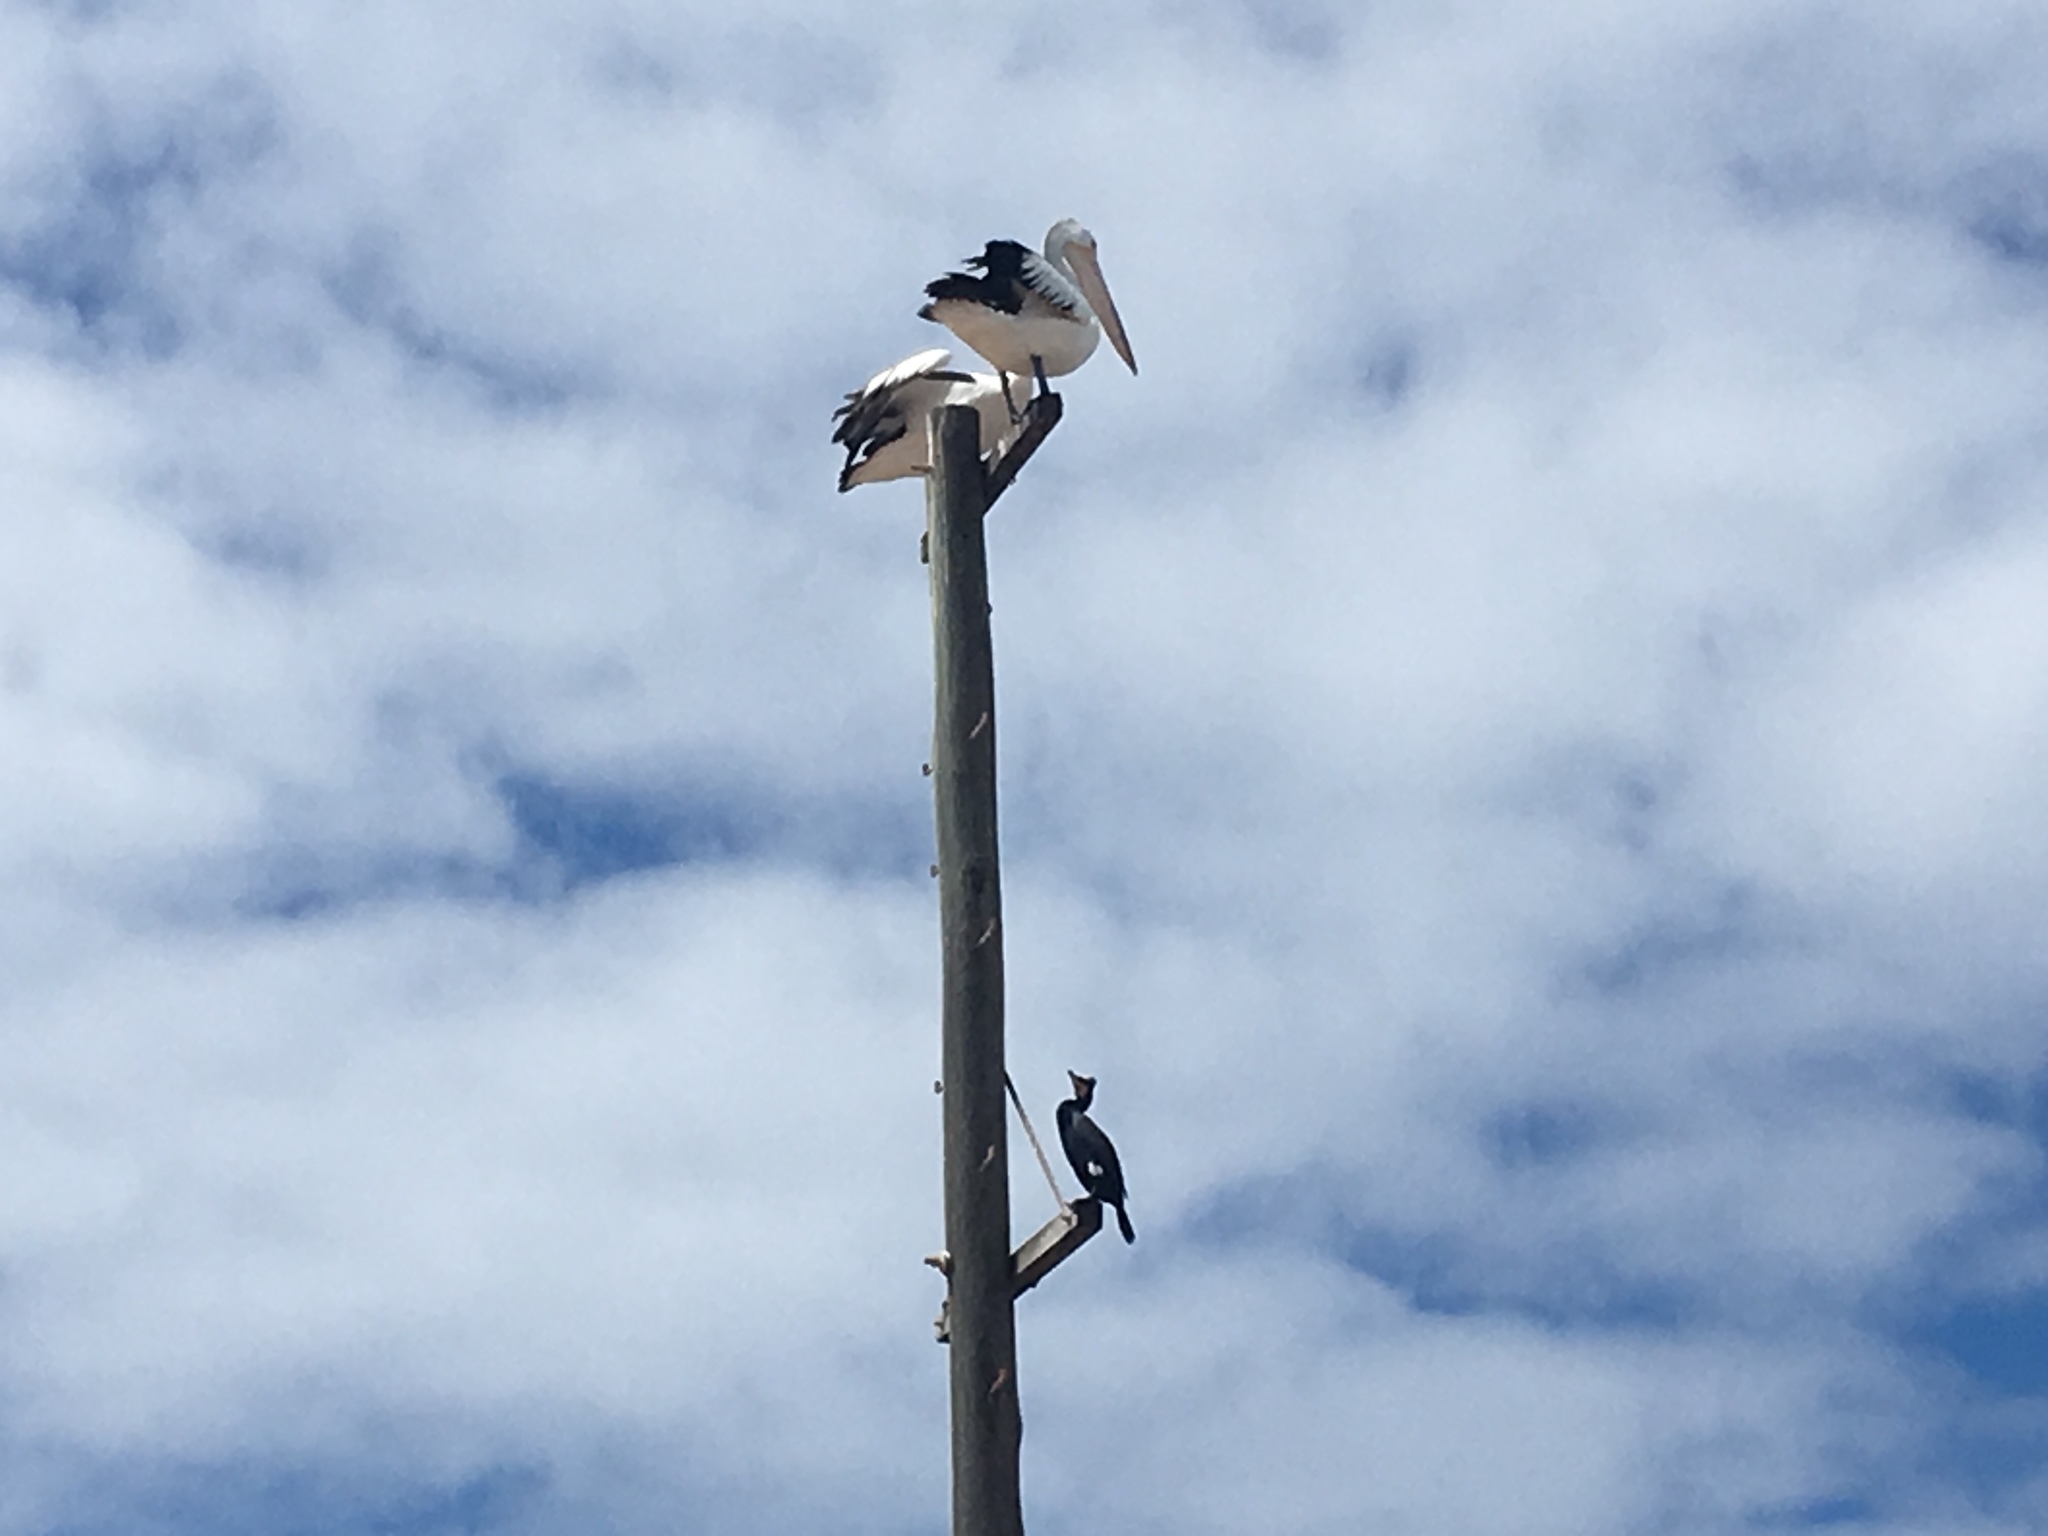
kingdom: Animalia
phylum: Chordata
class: Aves
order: Pelecaniformes
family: Pelecanidae
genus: Pelecanus
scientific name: Pelecanus conspicillatus
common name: Australian pelican
